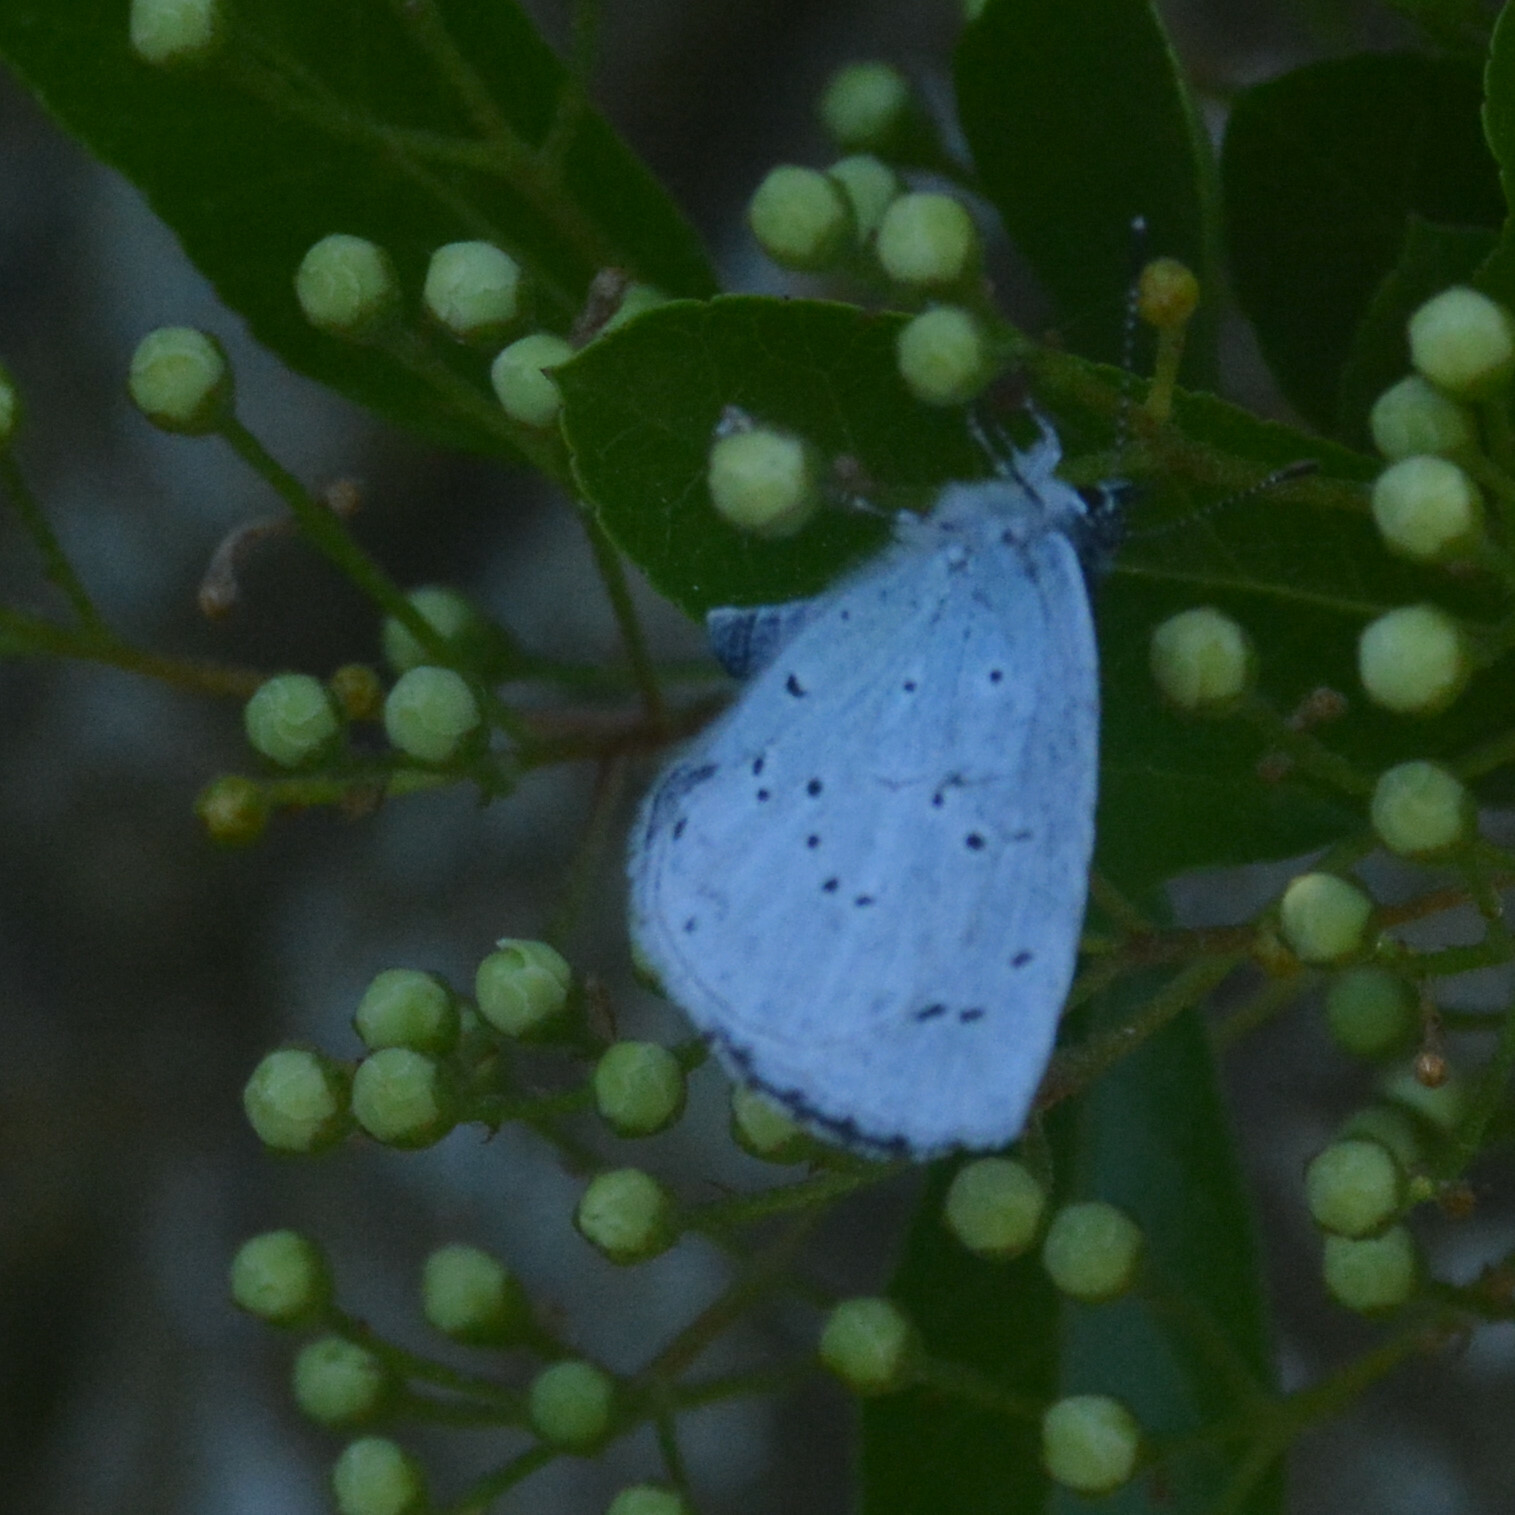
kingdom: Animalia
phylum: Arthropoda
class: Insecta
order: Lepidoptera
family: Lycaenidae
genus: Celastrina
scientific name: Celastrina argiolus
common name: Holly blue
